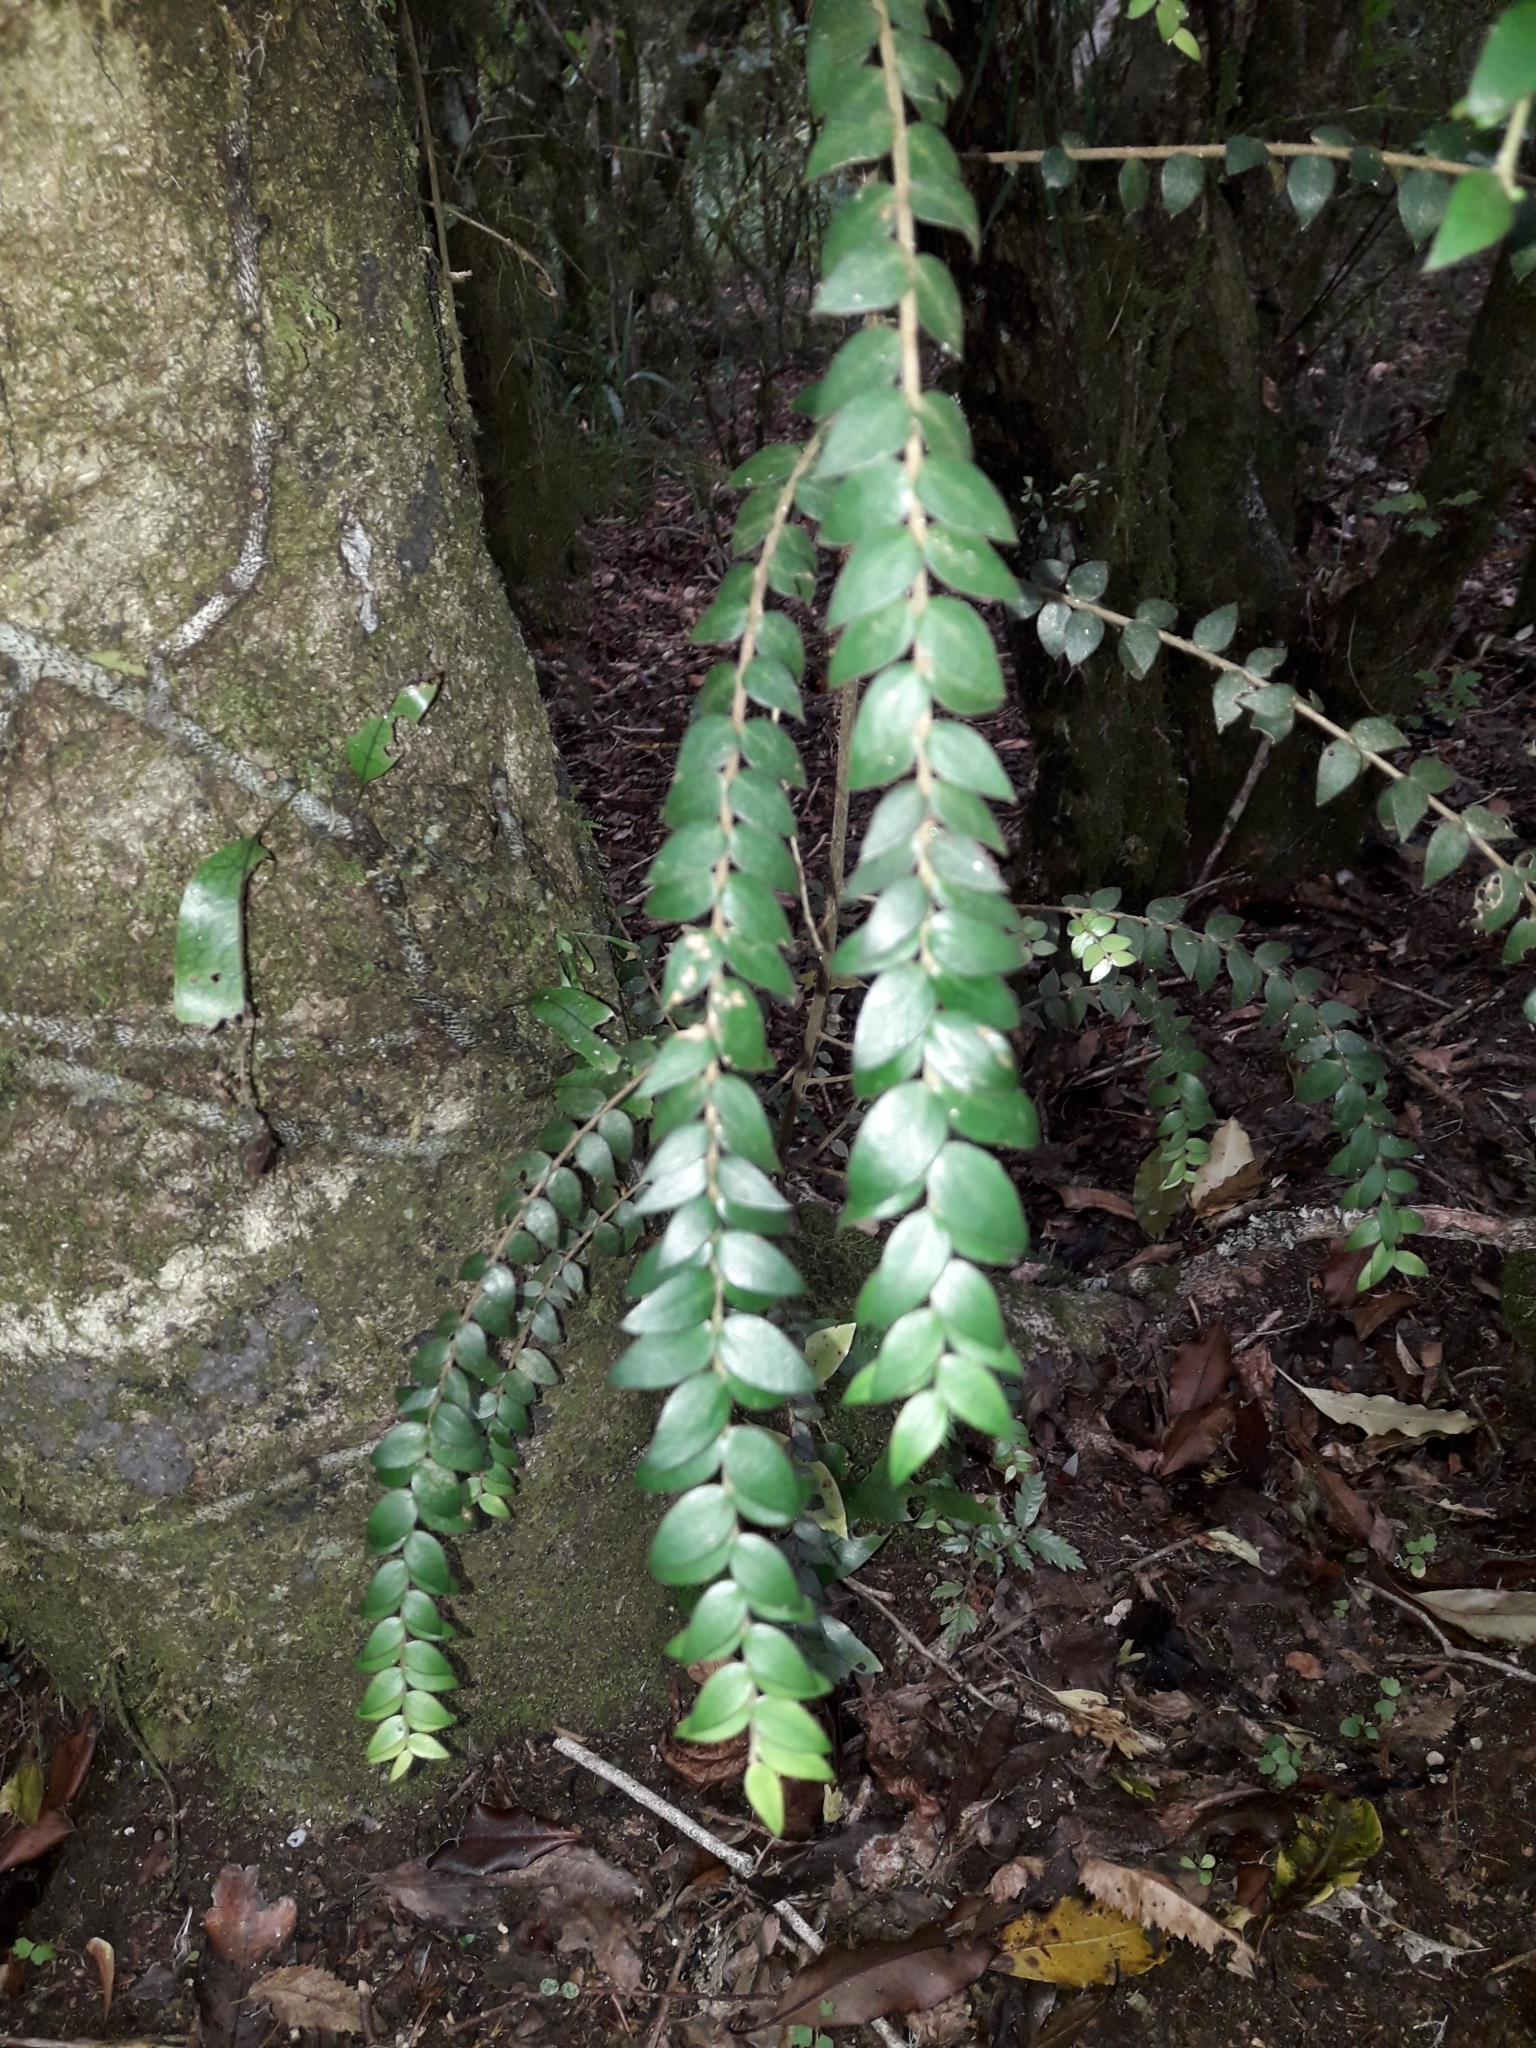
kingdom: Plantae
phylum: Tracheophyta
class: Magnoliopsida
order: Myrtales
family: Myrtaceae
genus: Metrosideros
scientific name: Metrosideros colensoi
